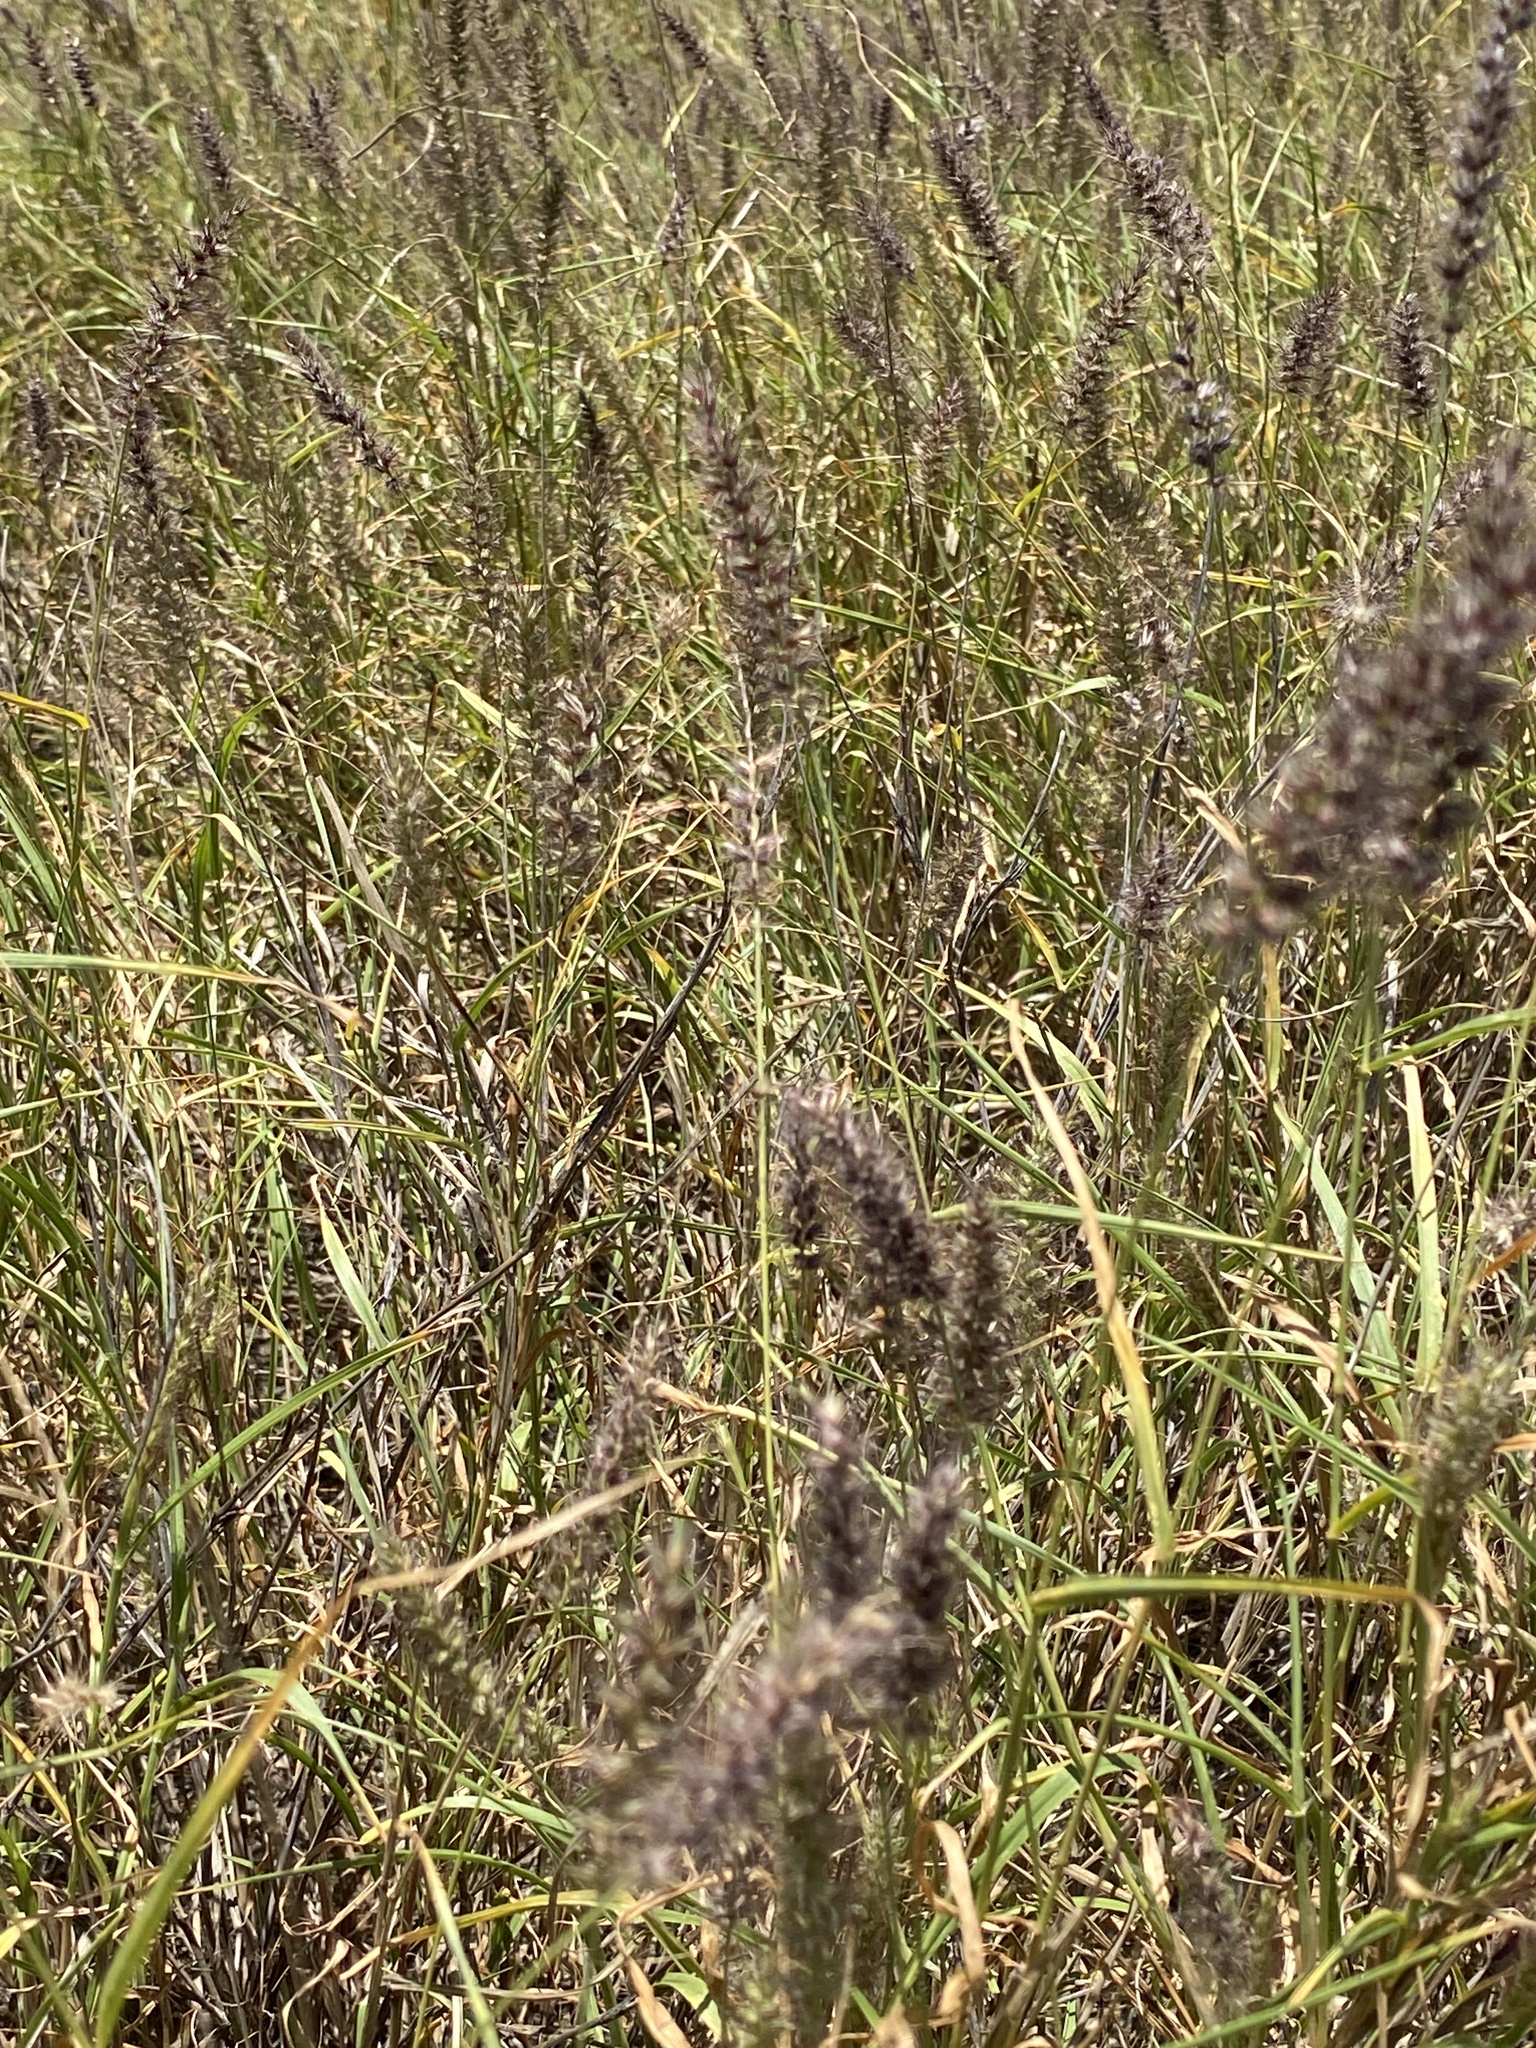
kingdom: Plantae
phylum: Tracheophyta
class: Liliopsida
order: Poales
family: Poaceae
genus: Cenchrus
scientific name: Cenchrus ciliaris
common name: Buffelgrass
